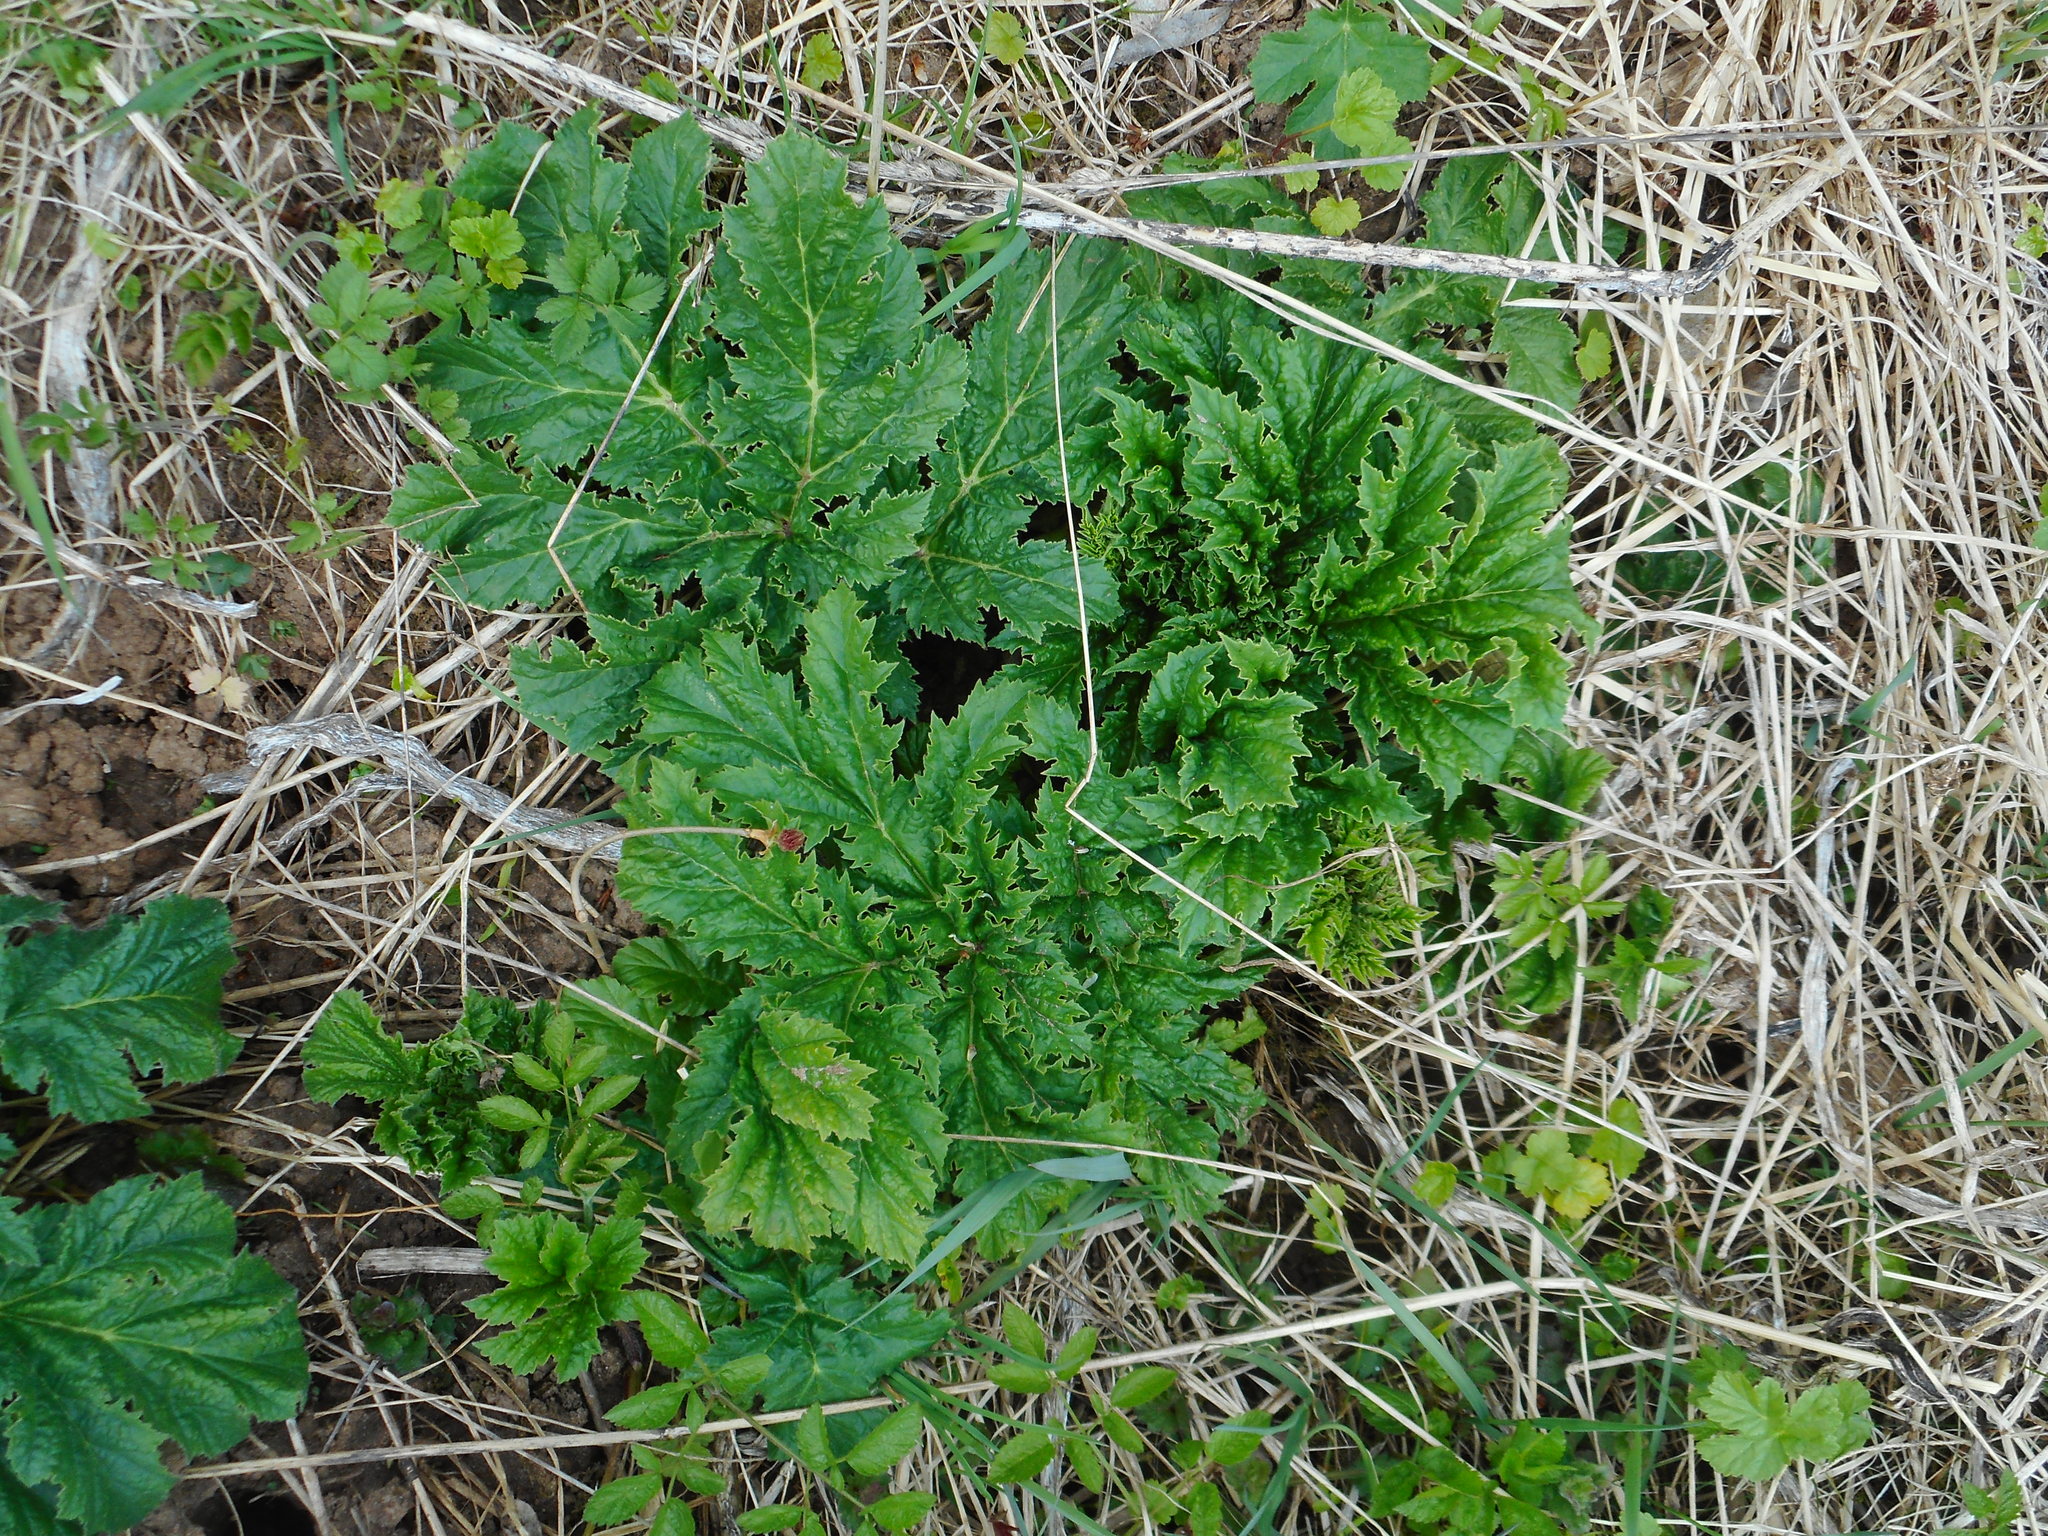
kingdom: Plantae
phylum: Tracheophyta
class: Magnoliopsida
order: Apiales
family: Apiaceae
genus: Heracleum
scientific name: Heracleum sosnowskyi
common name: Sosnowsky's hogweed
